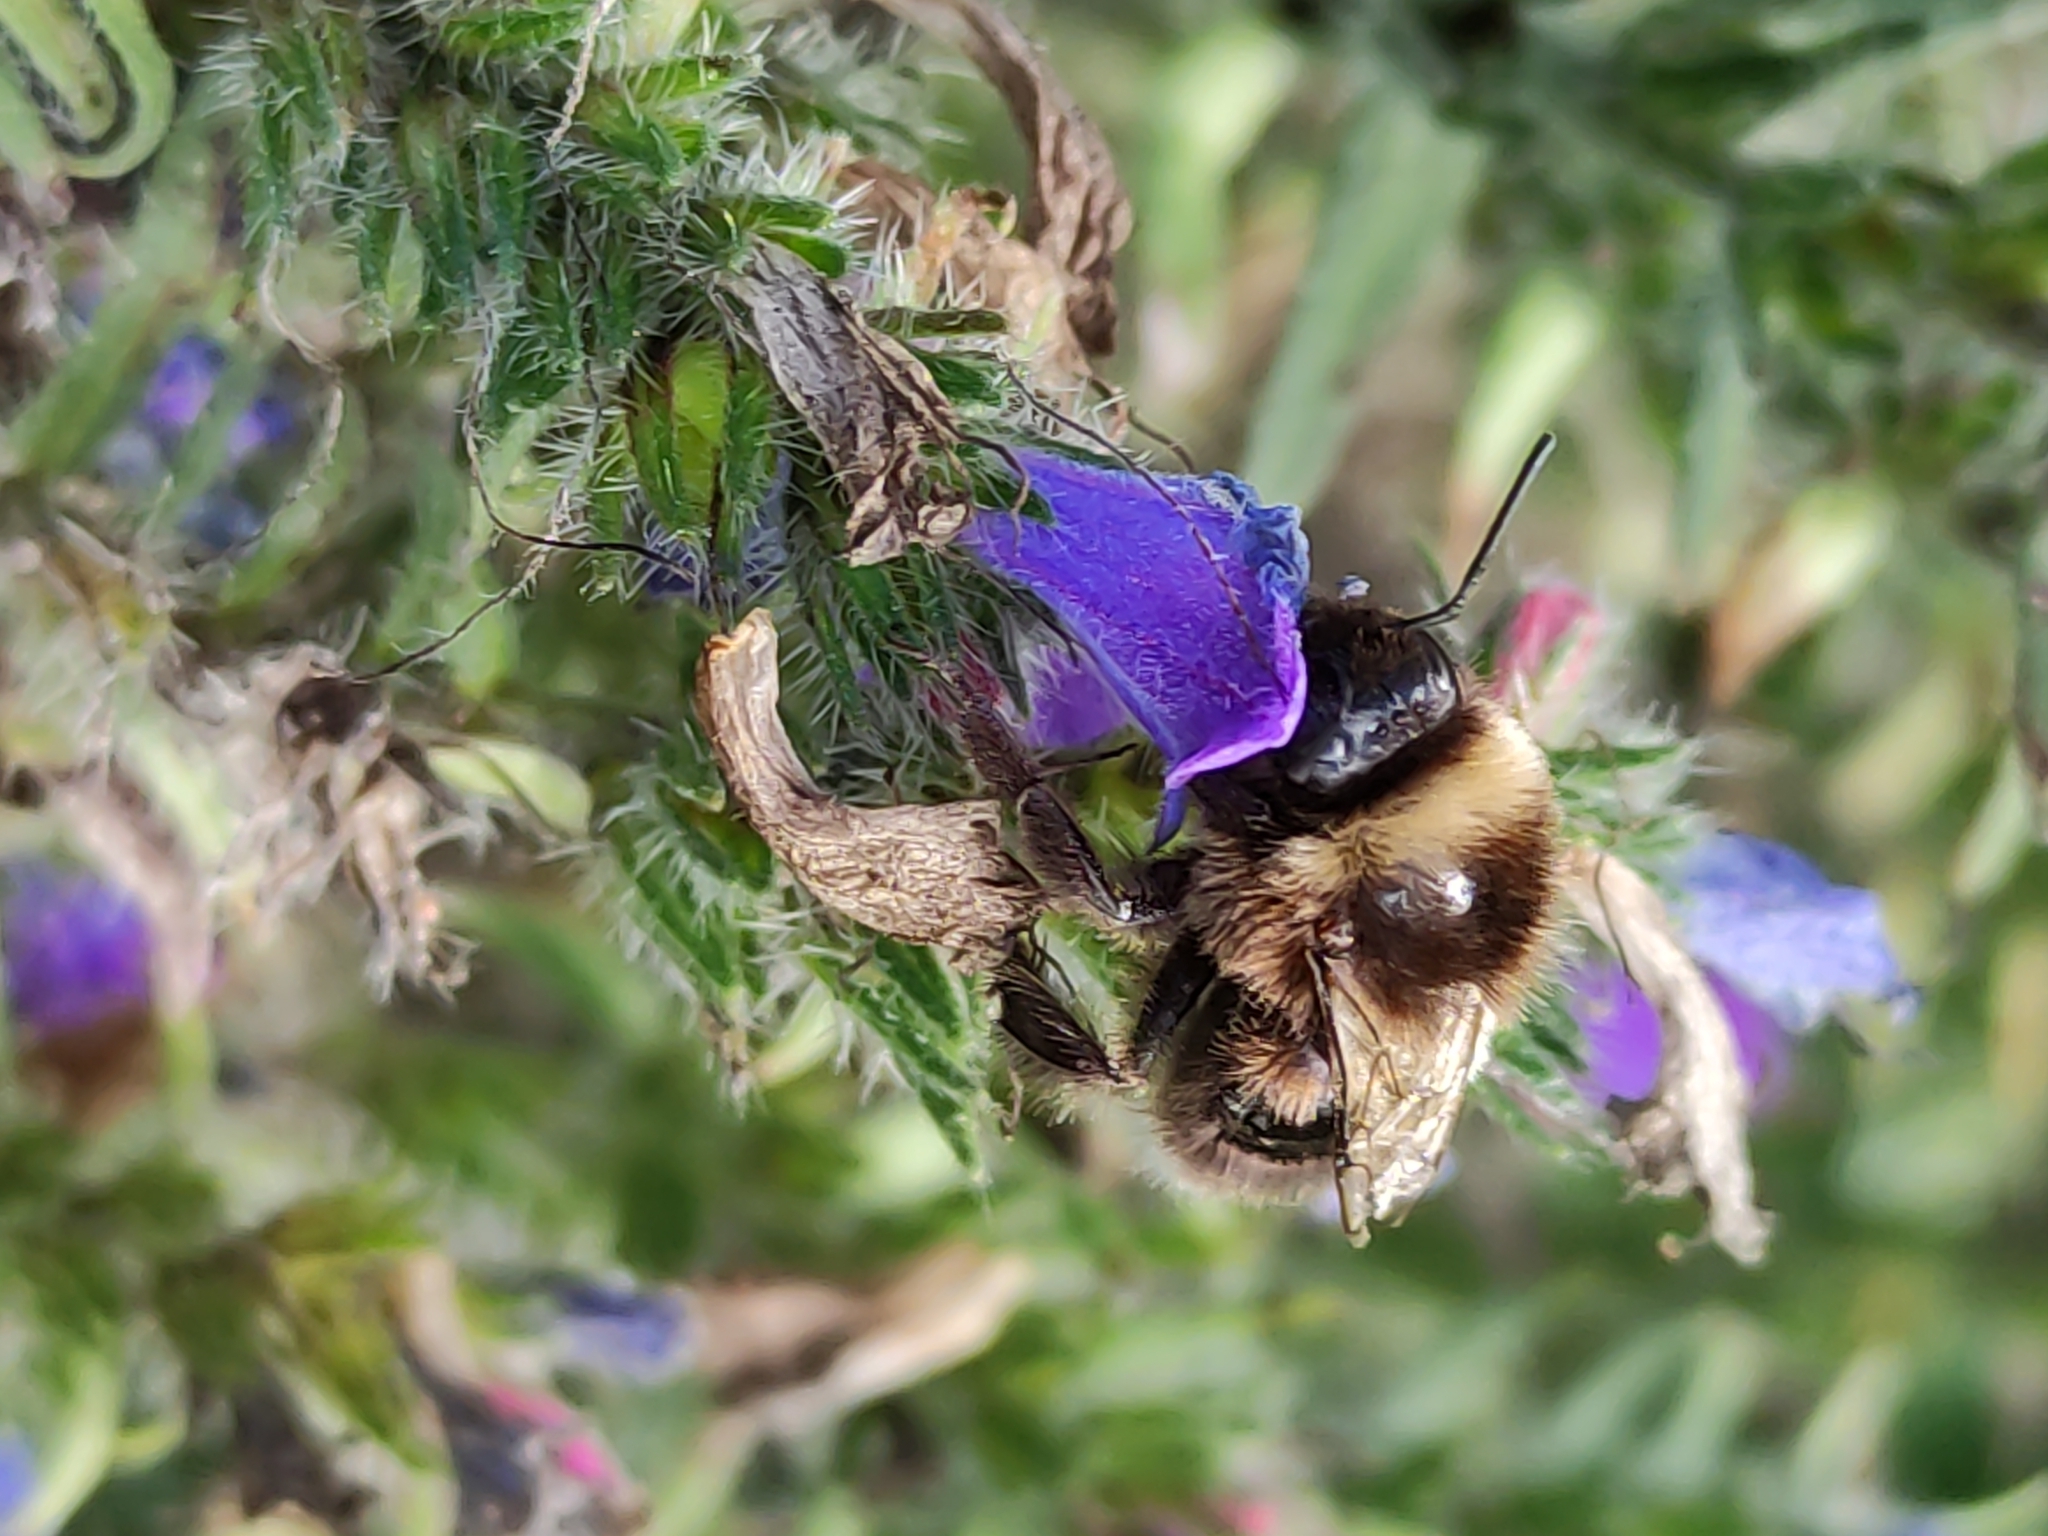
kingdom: Animalia
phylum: Arthropoda
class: Insecta
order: Hymenoptera
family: Apidae
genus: Bombus
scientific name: Bombus terrestris
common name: Buff-tailed bumblebee
